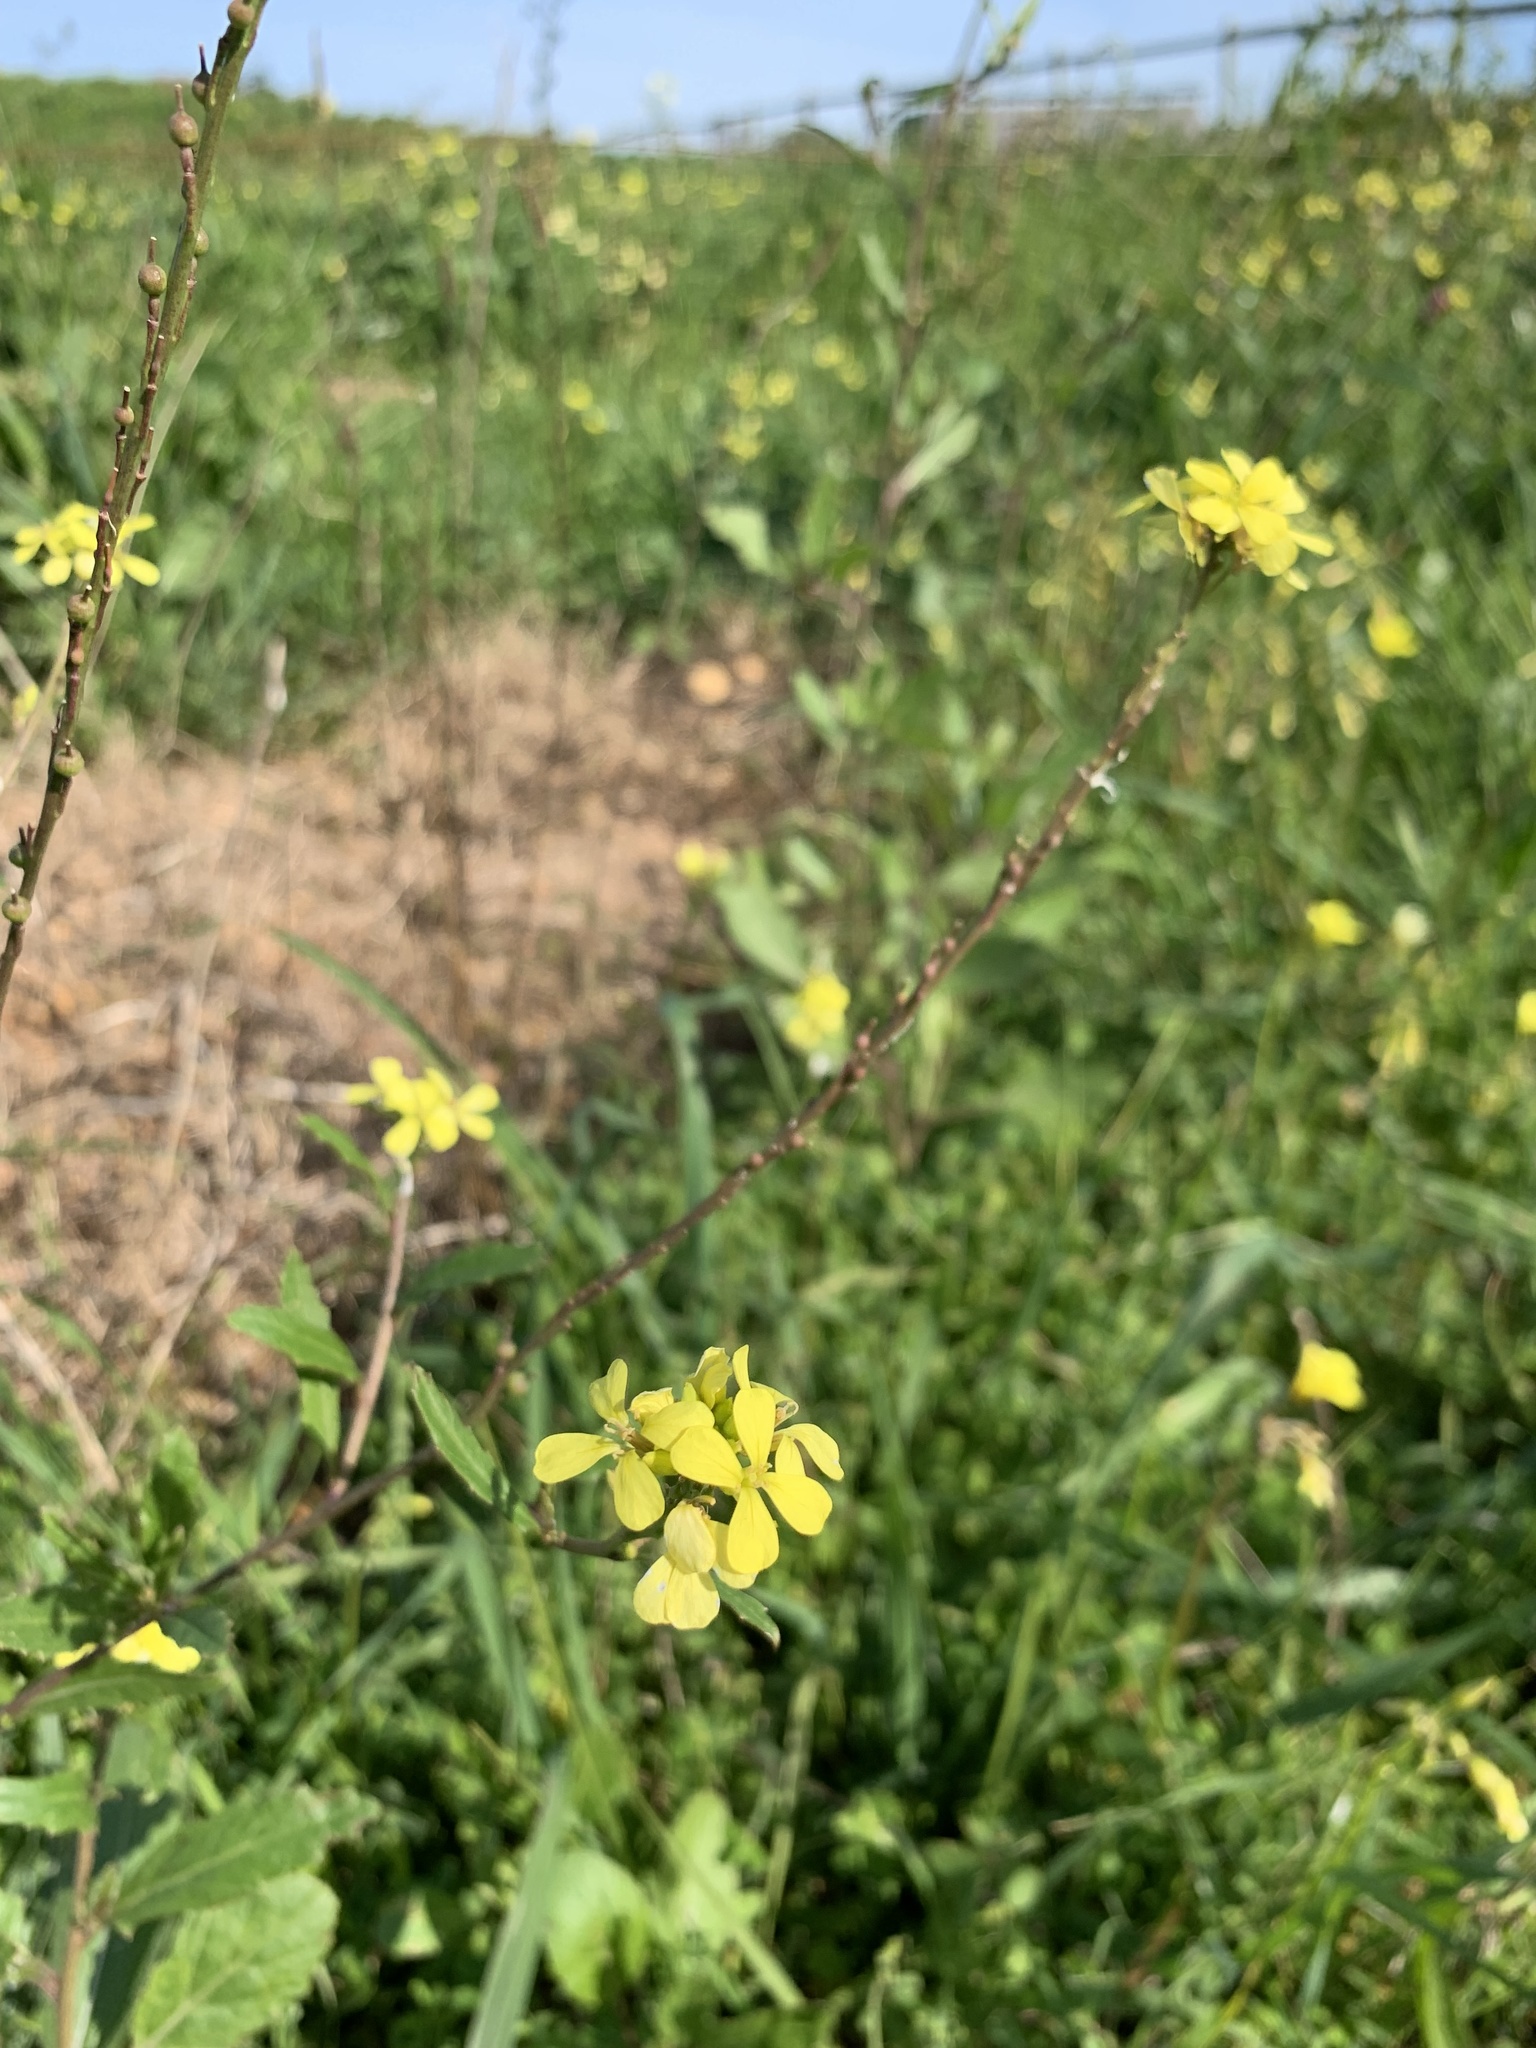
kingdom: Plantae
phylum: Tracheophyta
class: Magnoliopsida
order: Brassicales
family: Brassicaceae
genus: Rapistrum
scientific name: Rapistrum rugosum
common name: Annual bastardcabbage
